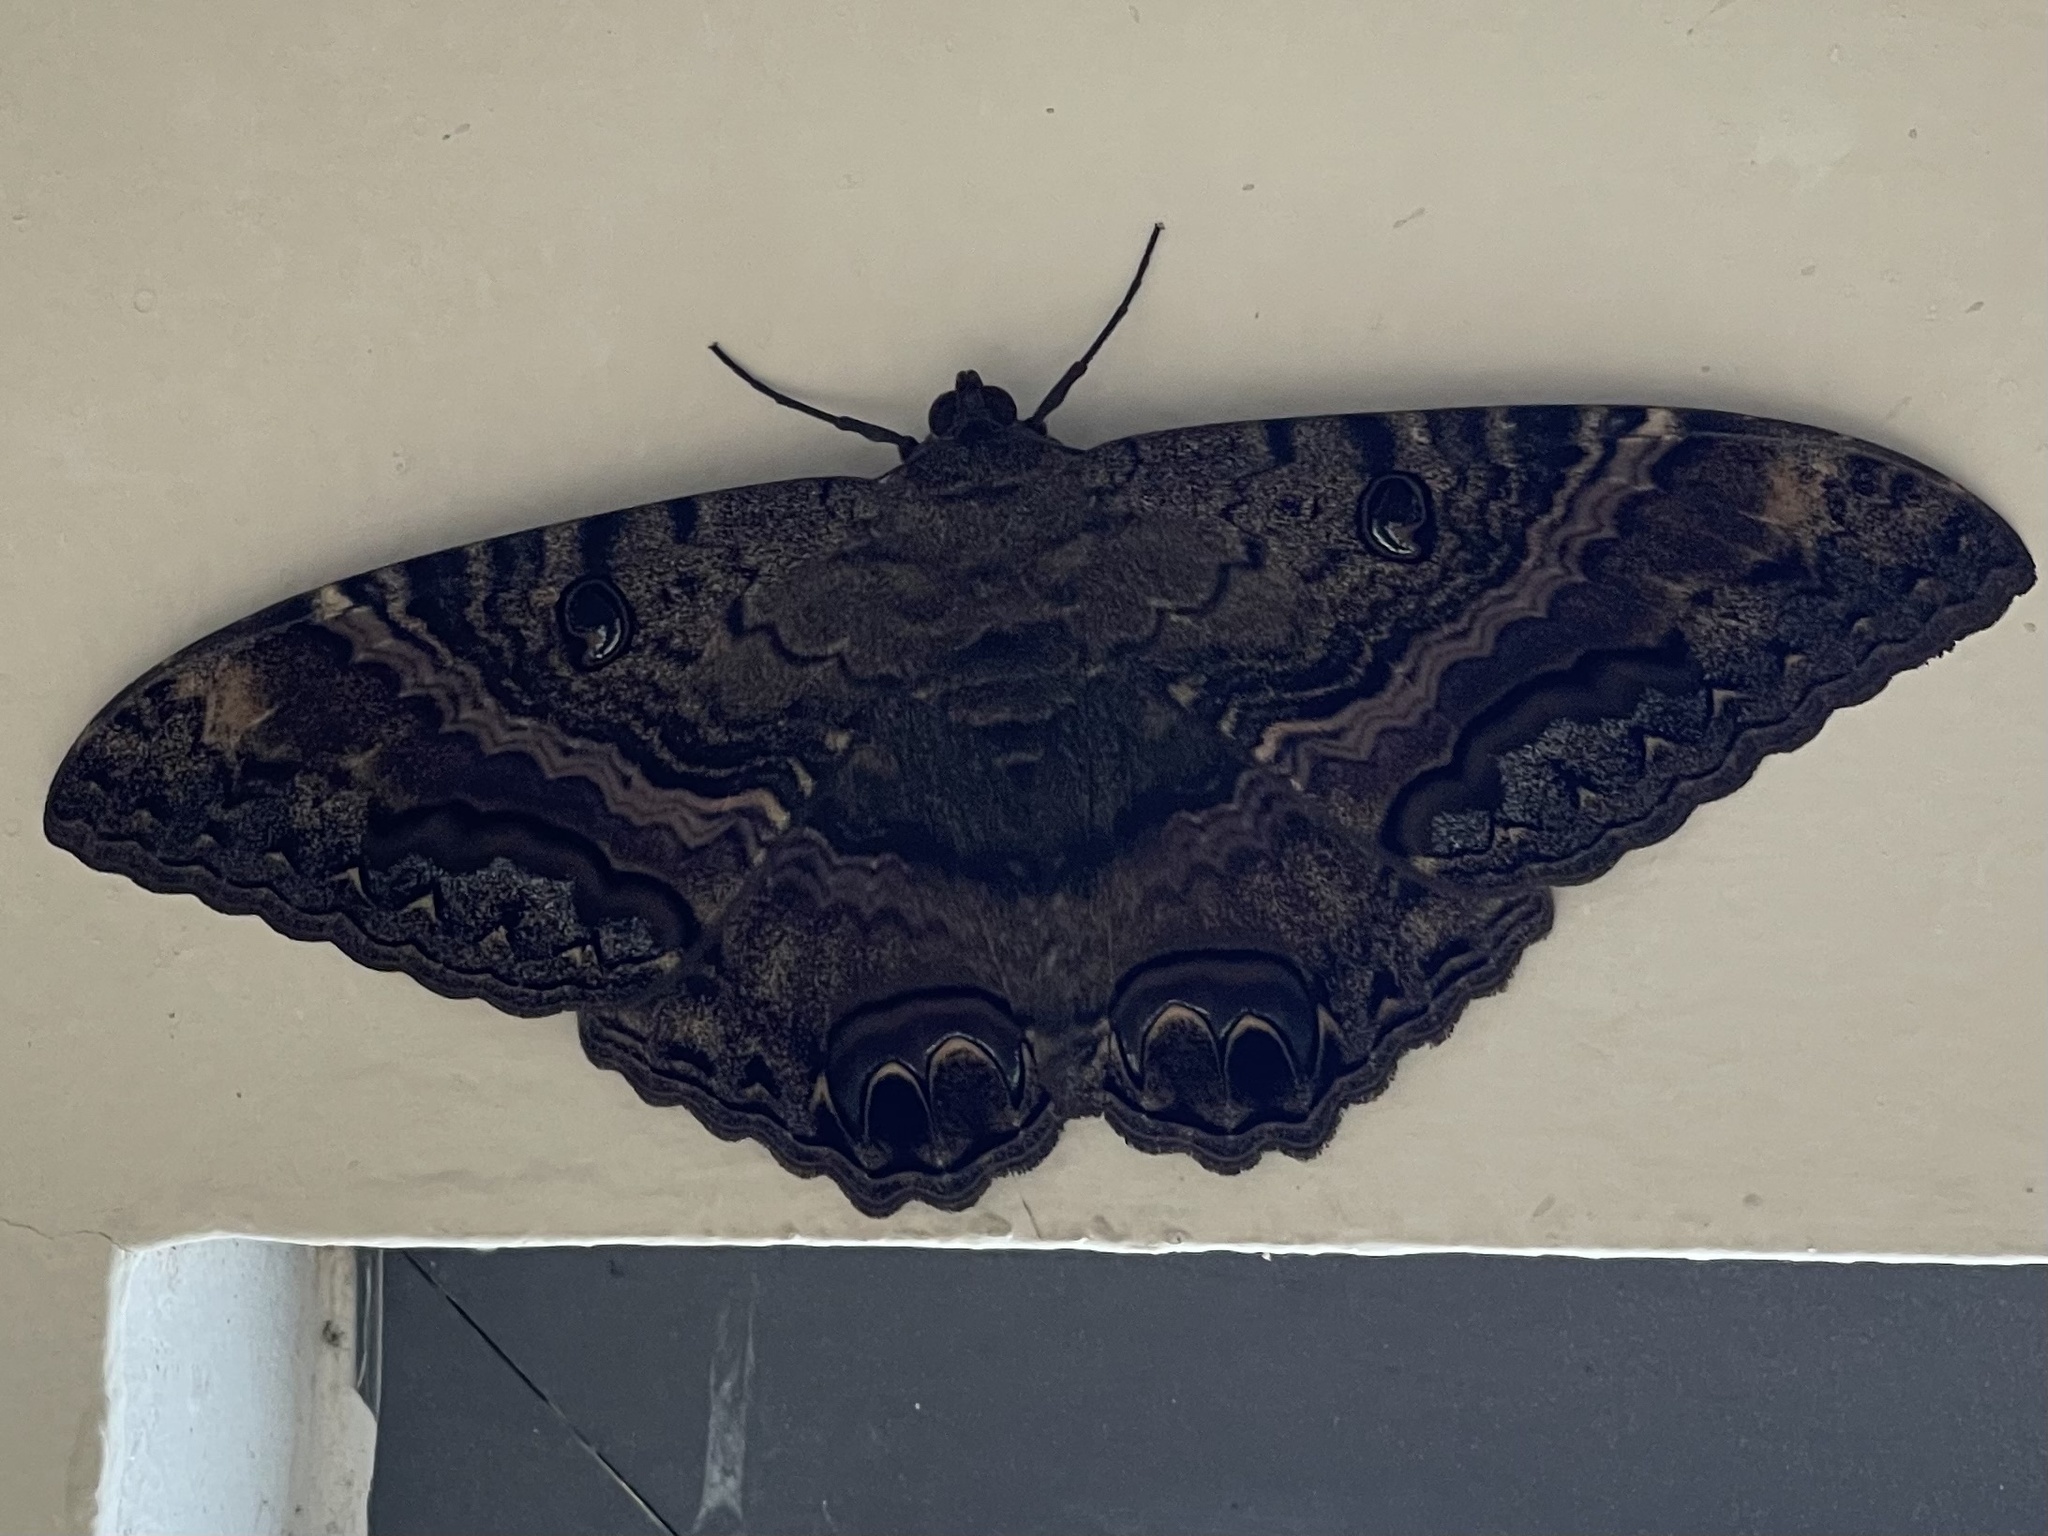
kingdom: Animalia
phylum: Arthropoda
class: Insecta
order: Lepidoptera
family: Erebidae
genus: Ascalapha
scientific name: Ascalapha odorata
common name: Black witch
